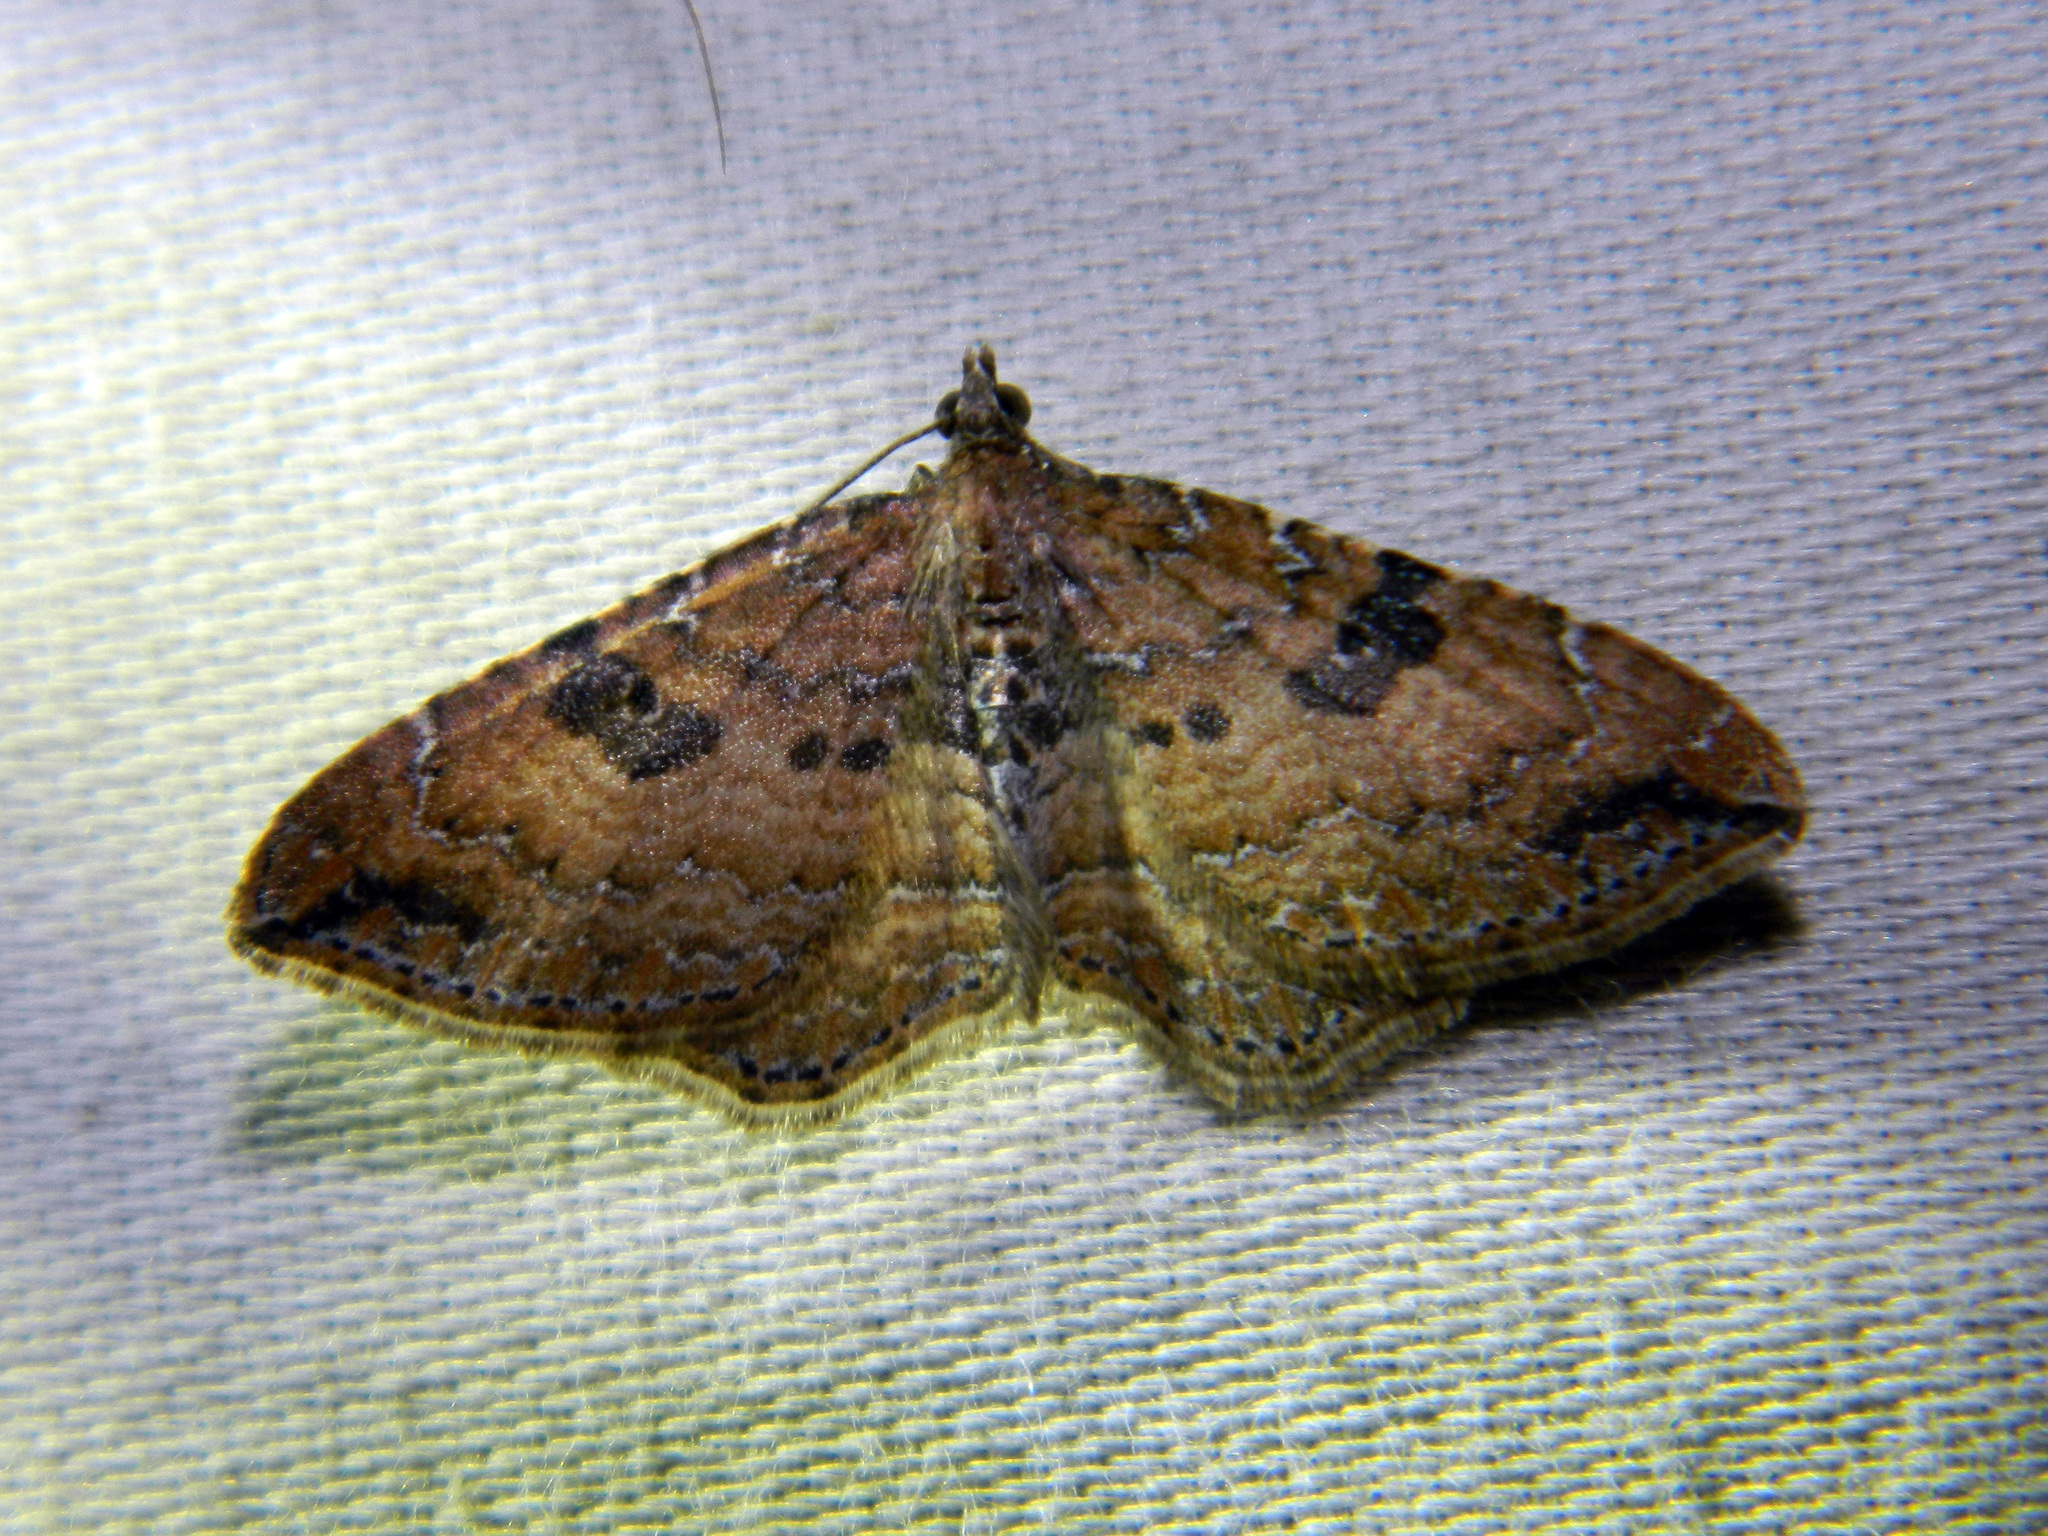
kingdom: Animalia
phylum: Arthropoda
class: Insecta
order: Lepidoptera
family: Geometridae
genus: Orthonama
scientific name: Orthonama obstipata
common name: The gem
